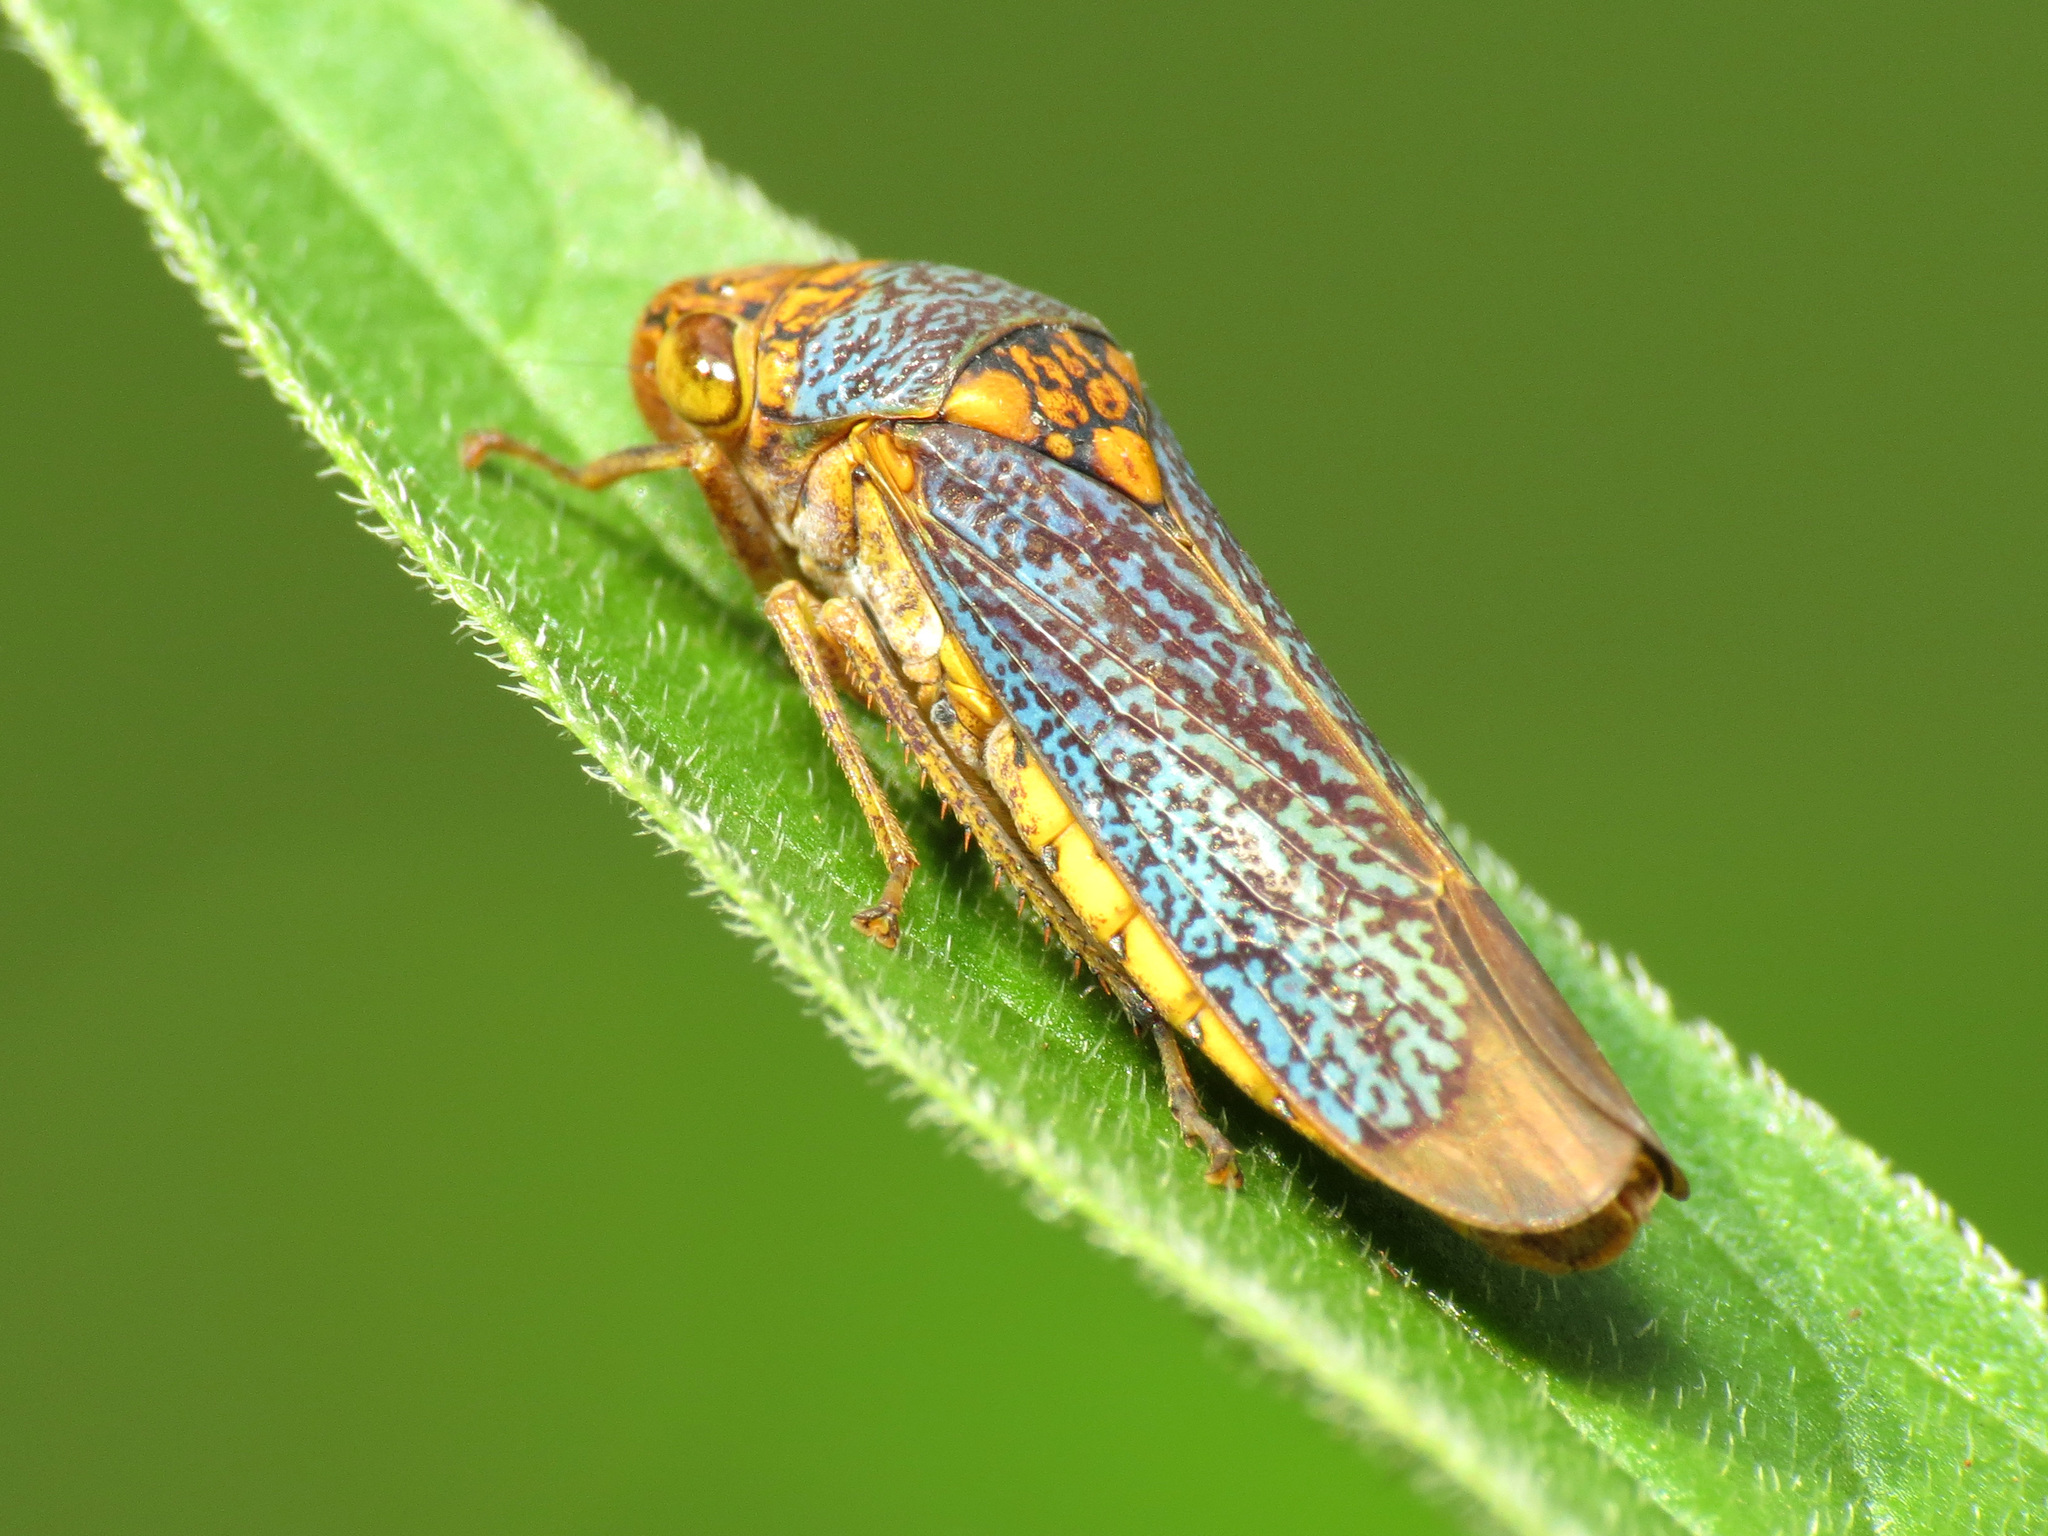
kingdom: Animalia
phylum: Arthropoda
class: Insecta
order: Hemiptera
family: Cicadellidae
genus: Oncometopia
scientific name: Oncometopia orbona
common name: Broad-headed sharpshooter
